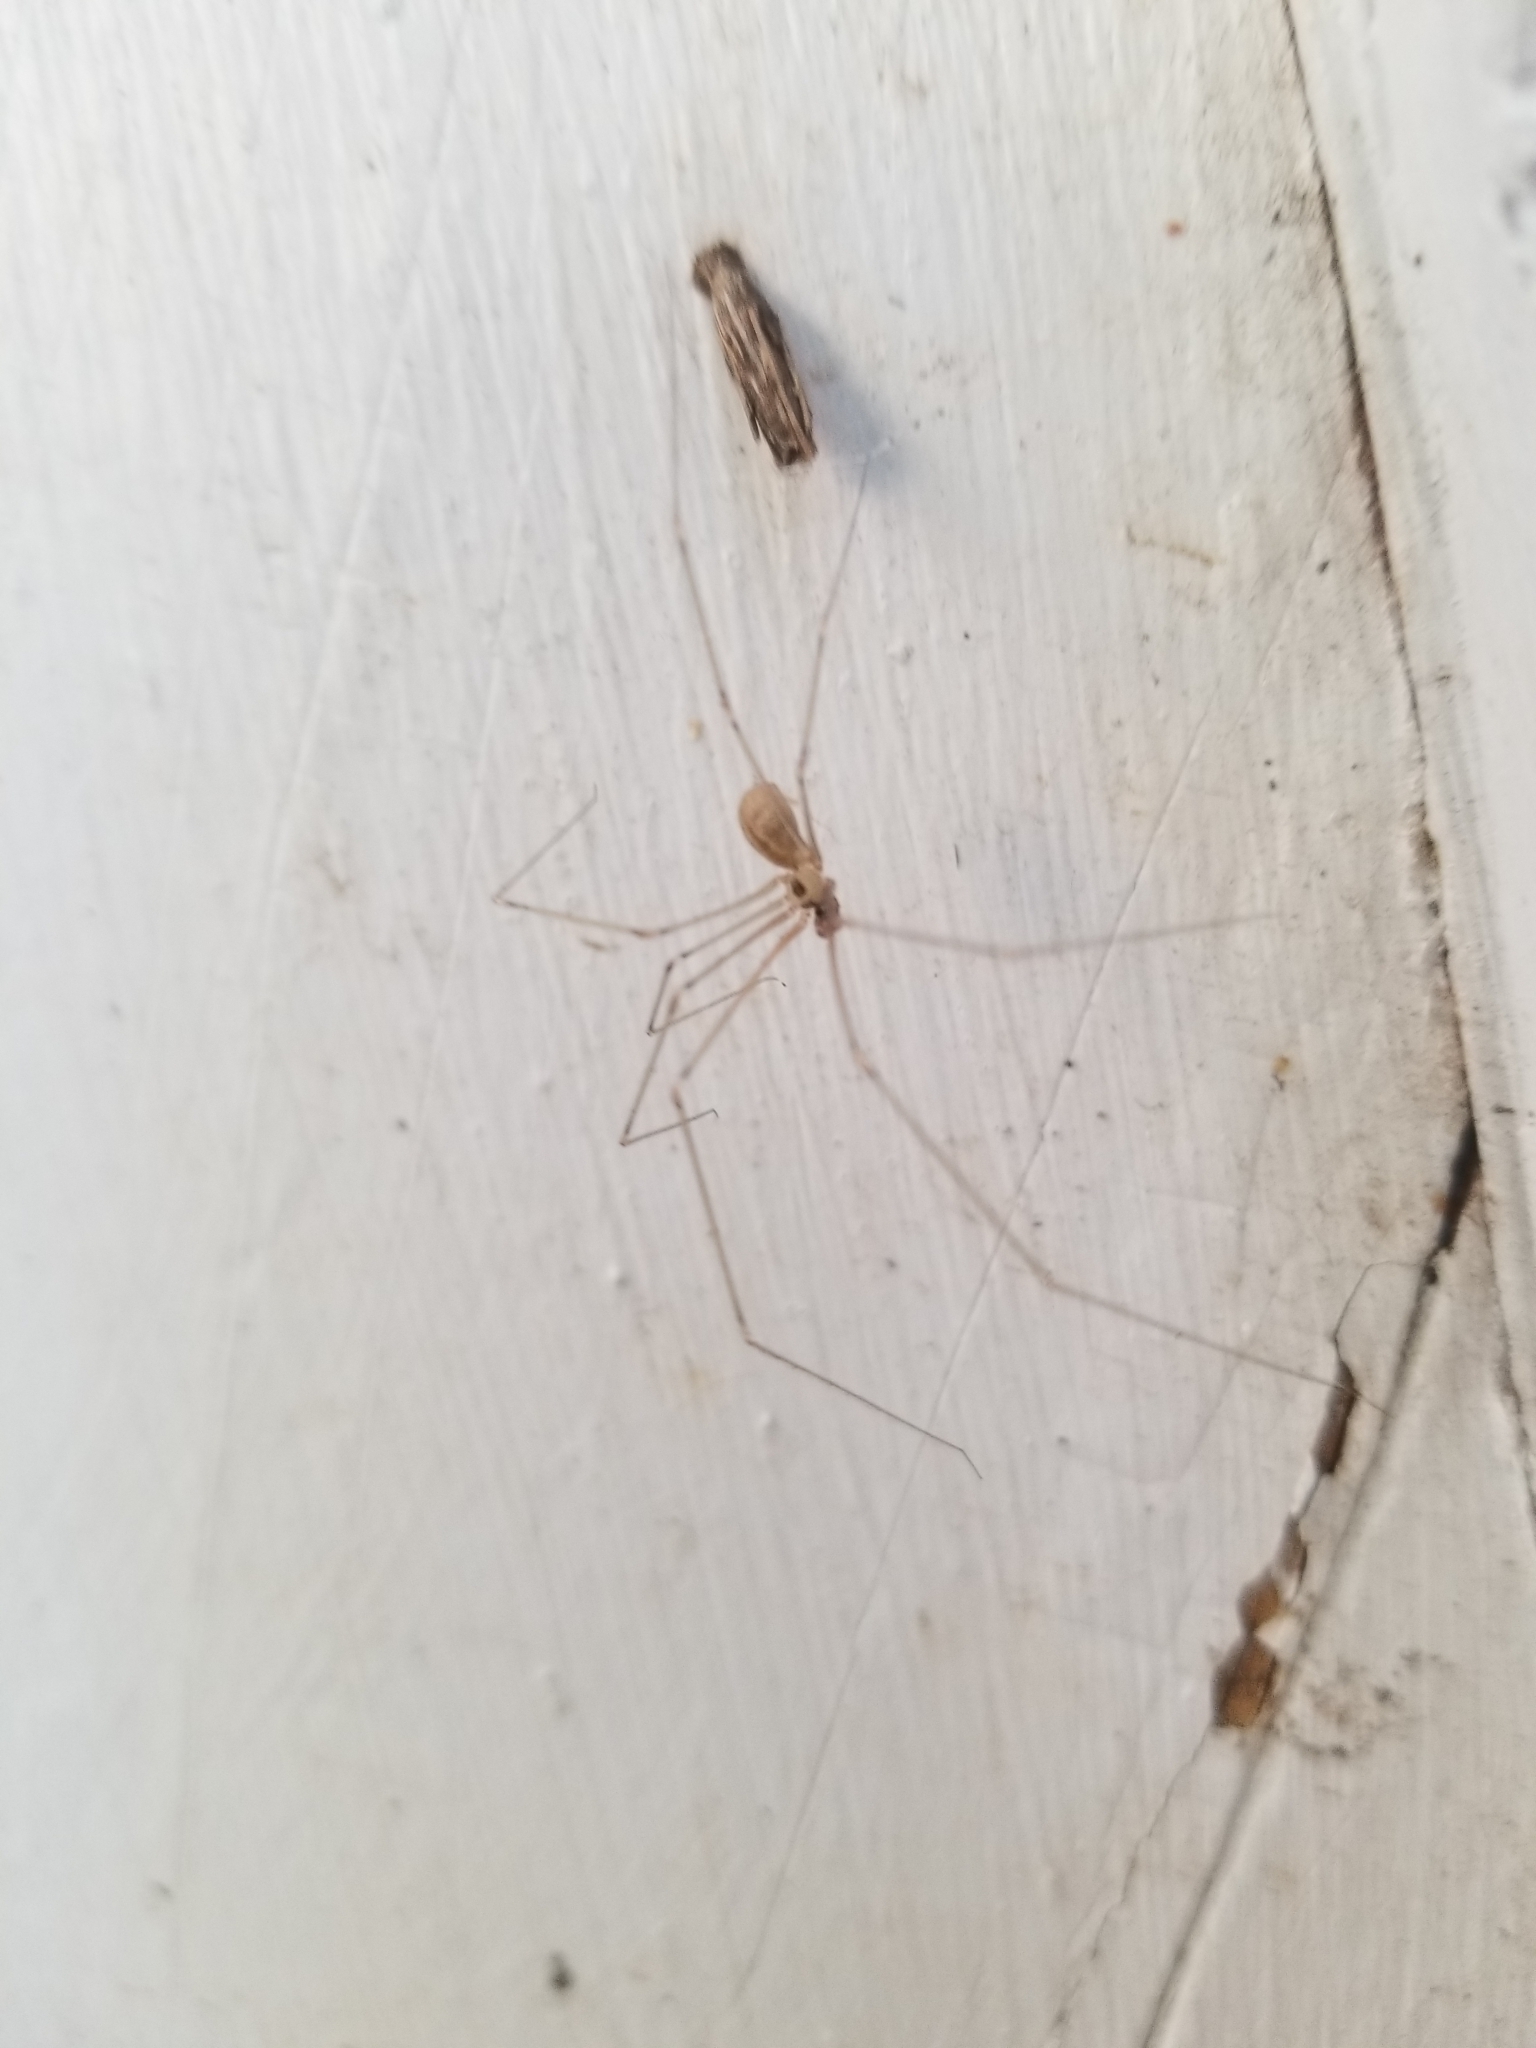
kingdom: Animalia
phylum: Arthropoda
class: Arachnida
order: Araneae
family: Pholcidae
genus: Pholcus
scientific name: Pholcus phalangioides
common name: Longbodied cellar spider
